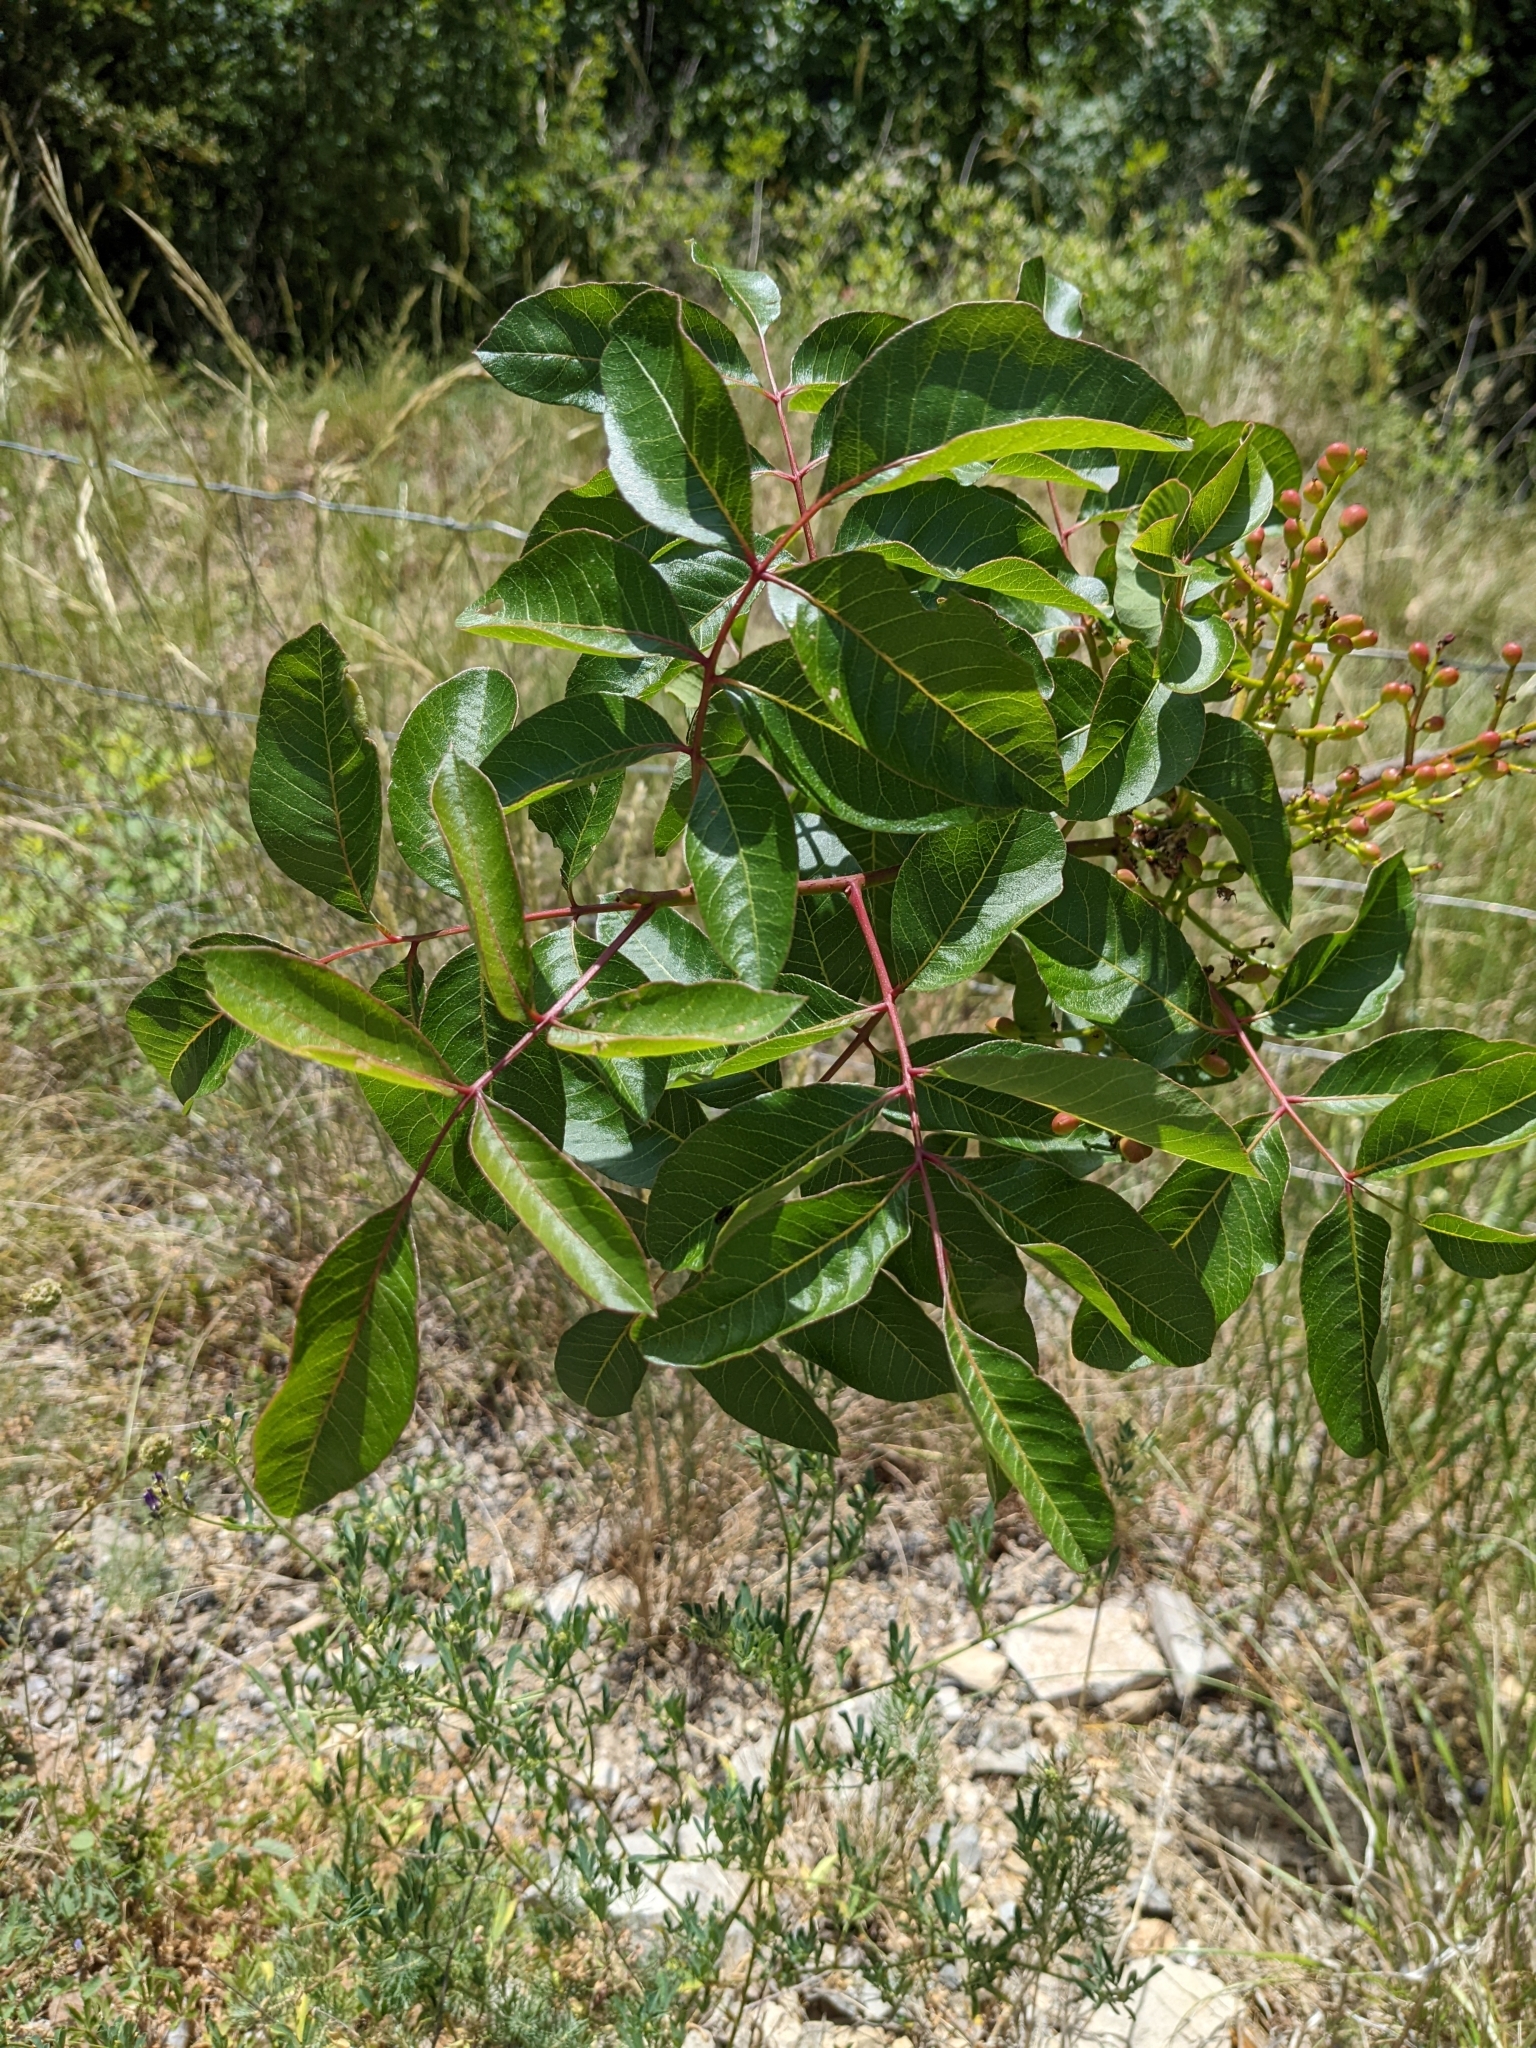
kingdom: Plantae
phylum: Tracheophyta
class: Magnoliopsida
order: Sapindales
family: Anacardiaceae
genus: Pistacia
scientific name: Pistacia terebinthus
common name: Terebinth
